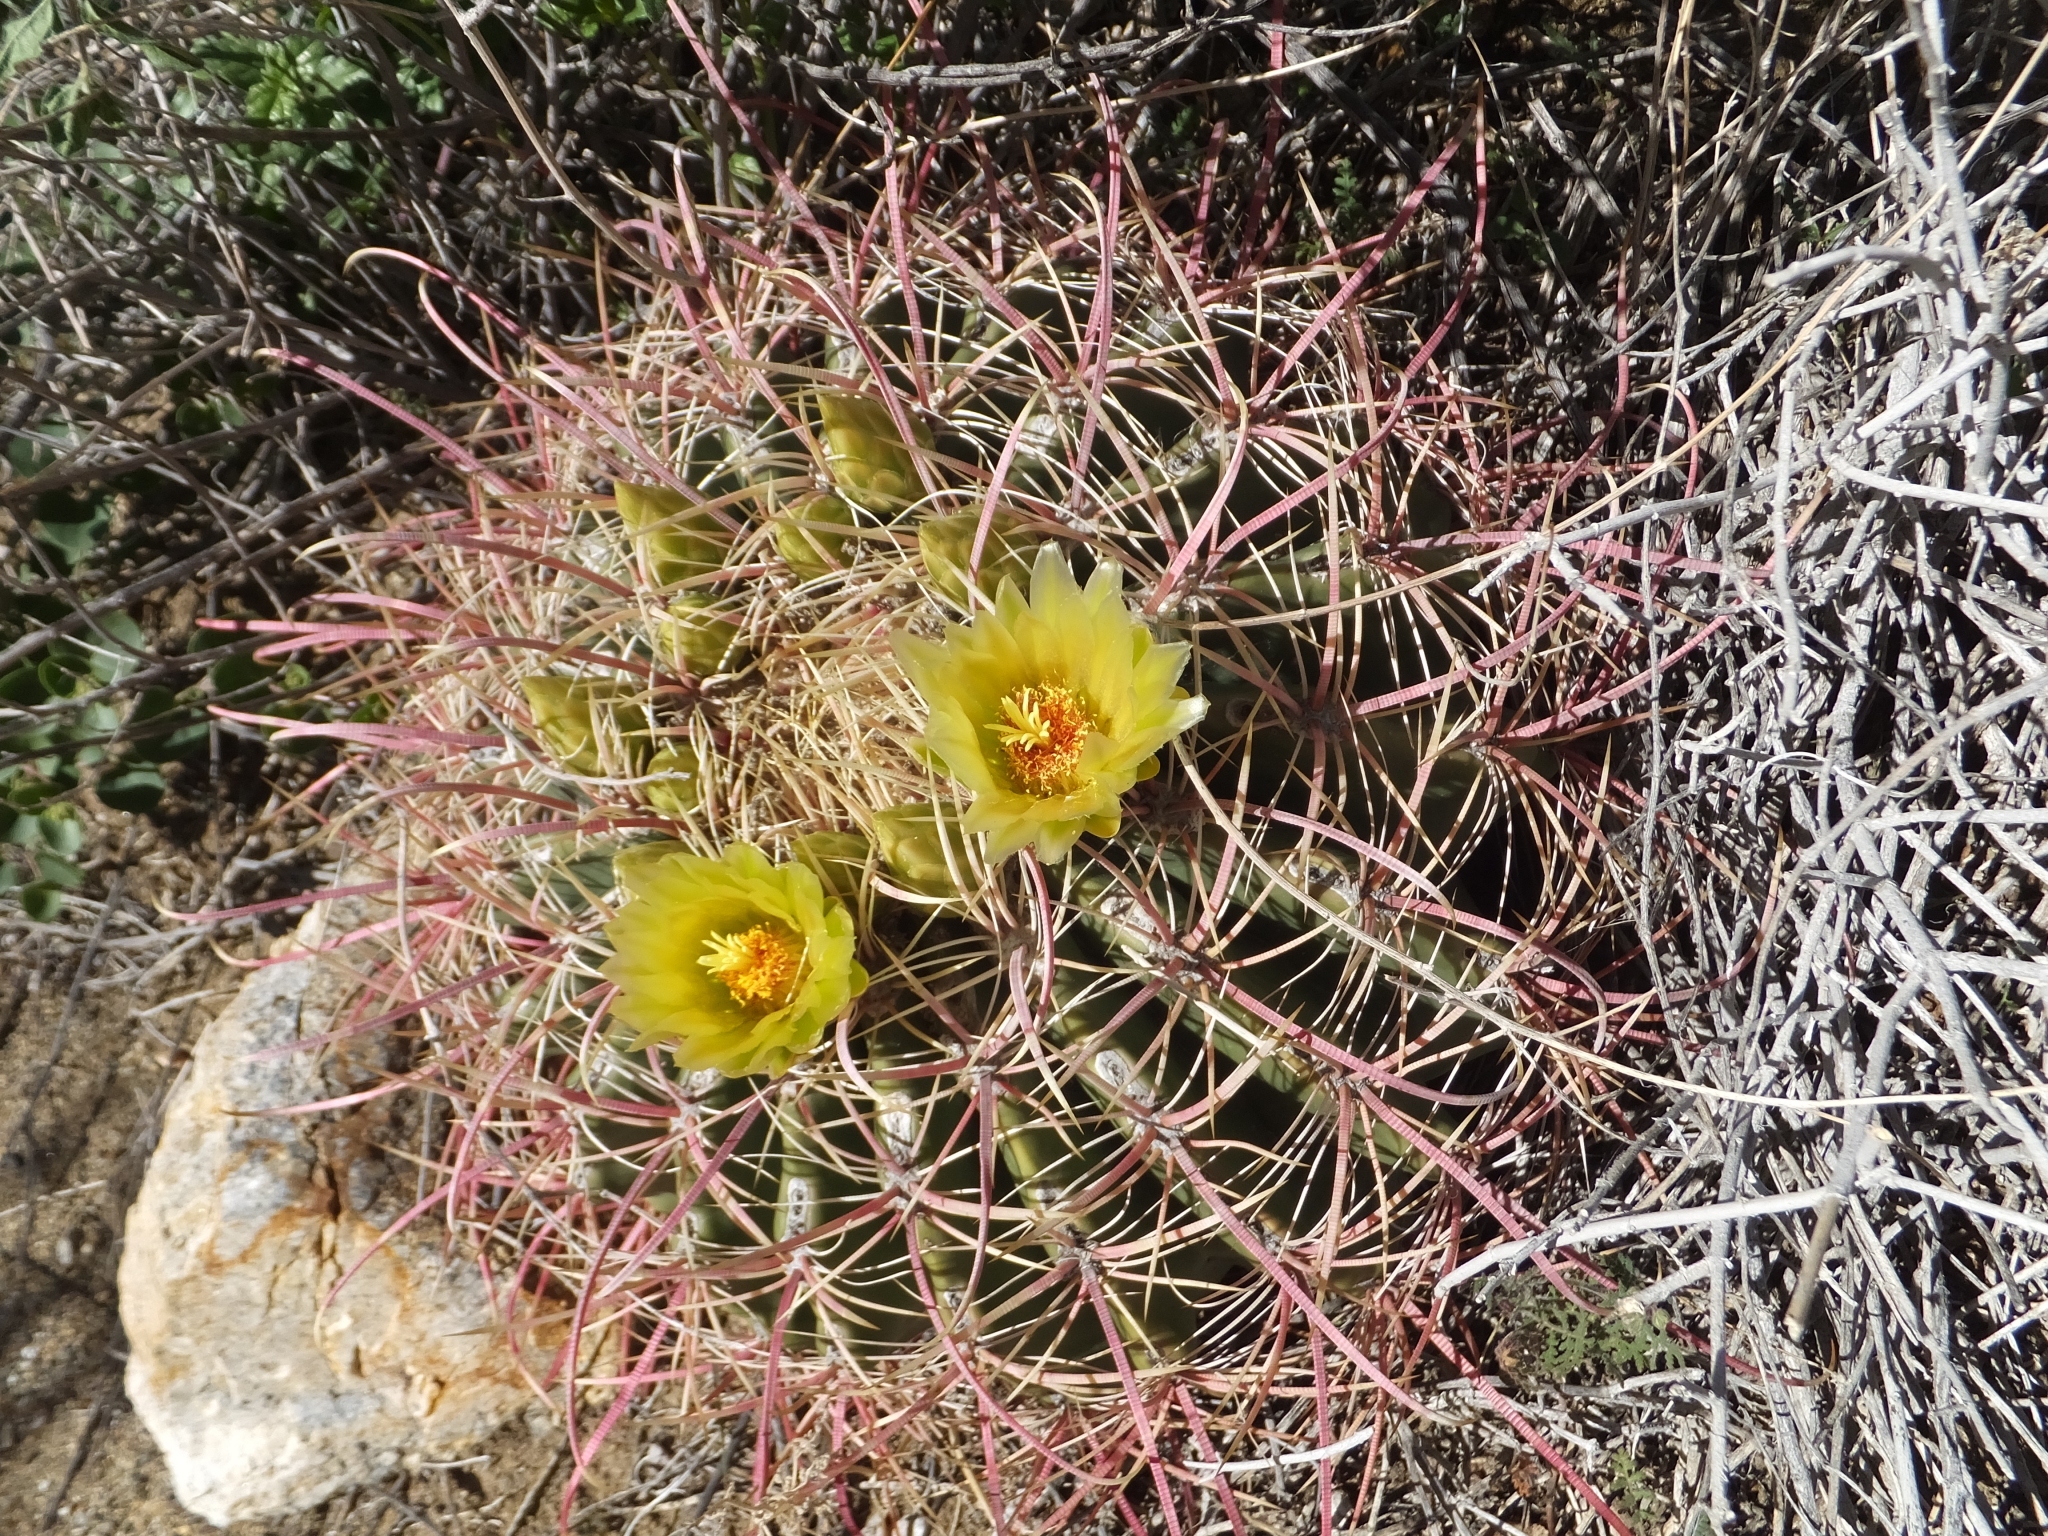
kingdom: Plantae
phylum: Tracheophyta
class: Magnoliopsida
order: Caryophyllales
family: Cactaceae
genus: Ferocactus
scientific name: Ferocactus cylindraceus
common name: California barrel cactus
